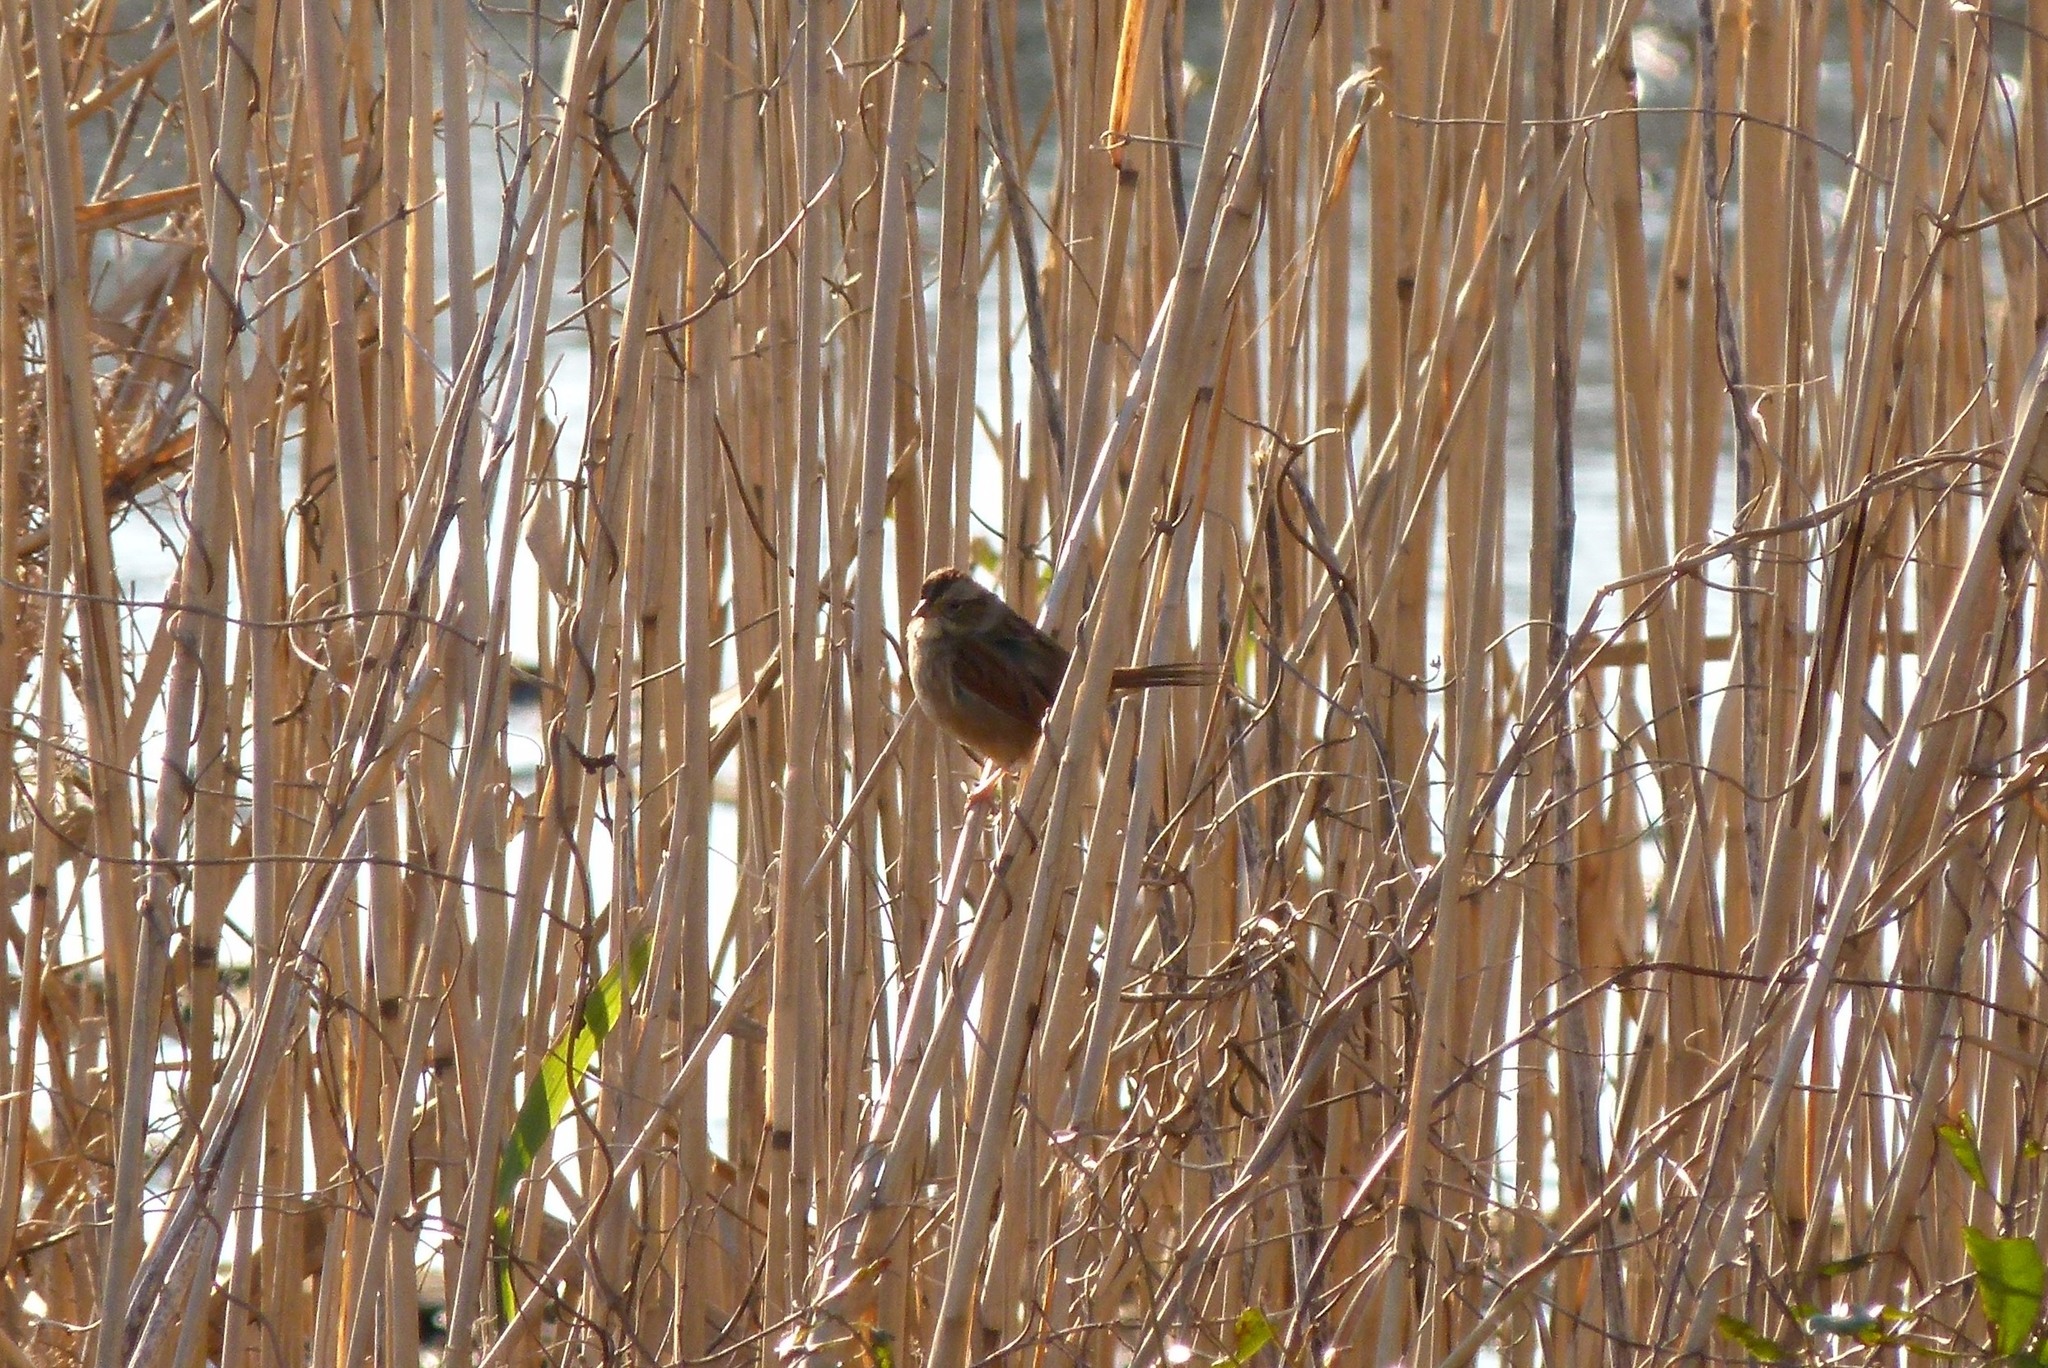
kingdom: Animalia
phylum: Chordata
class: Aves
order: Passeriformes
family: Passerellidae
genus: Melospiza
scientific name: Melospiza georgiana
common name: Swamp sparrow
